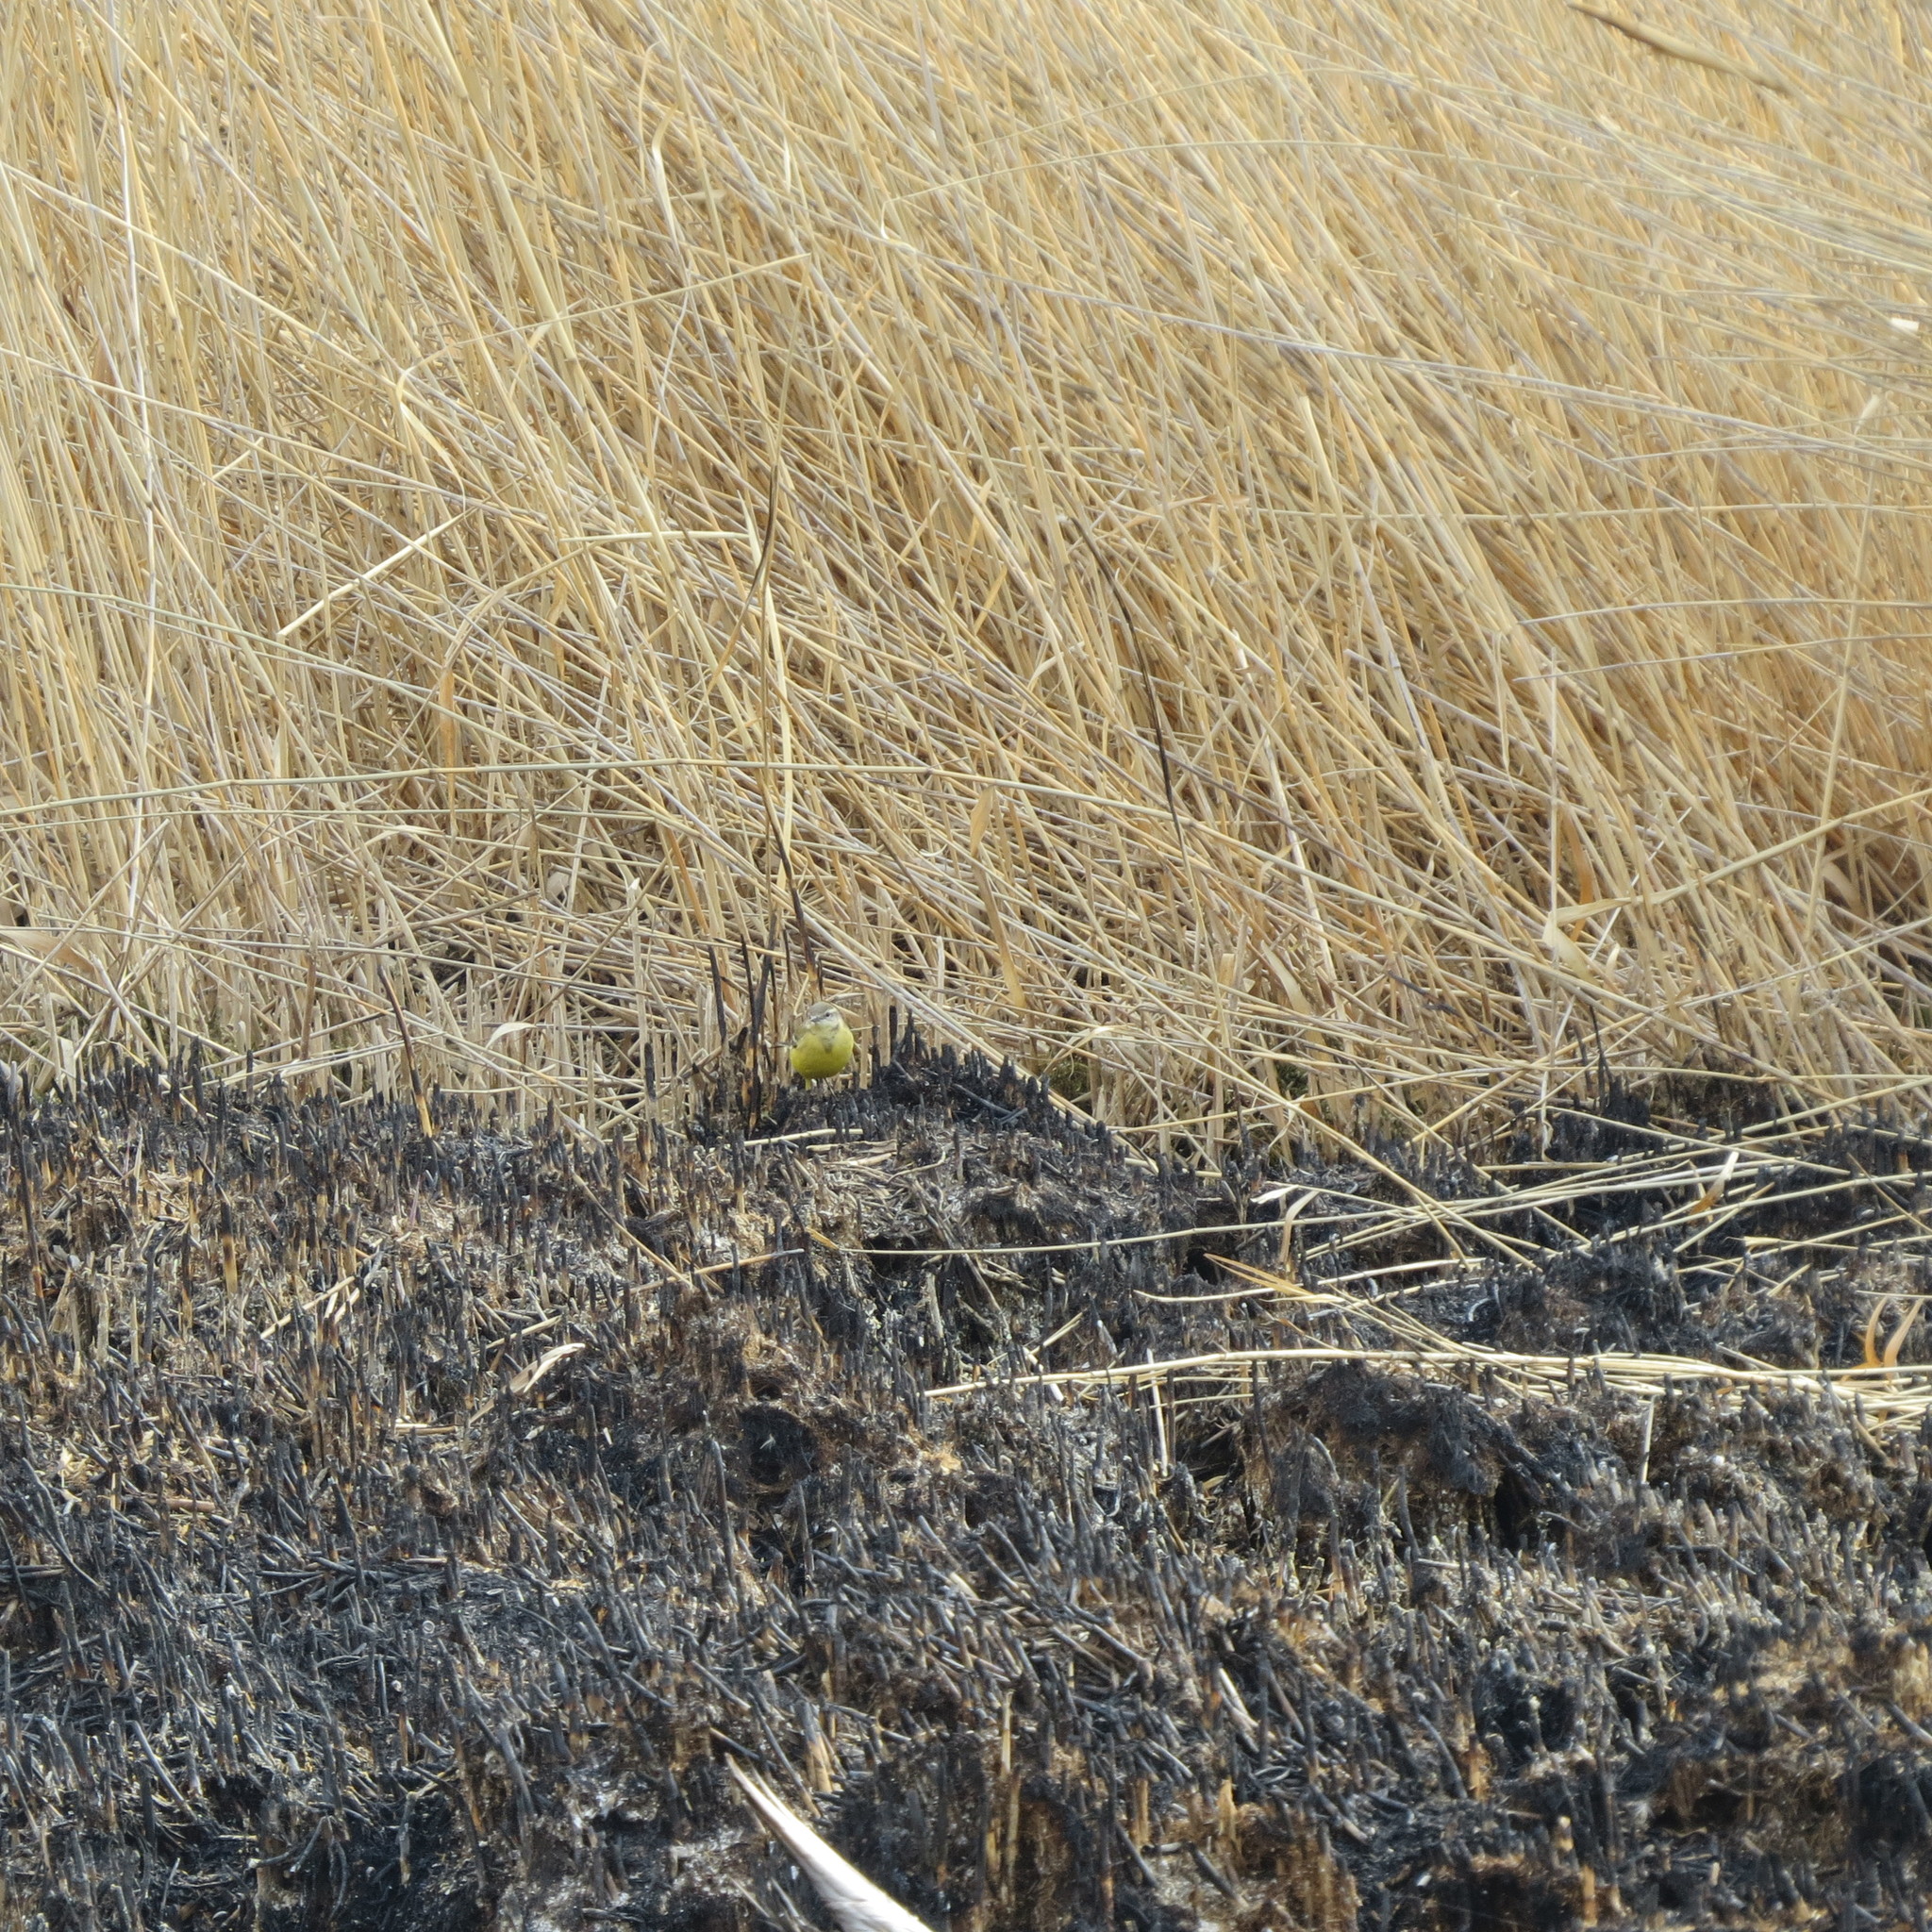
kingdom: Animalia
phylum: Chordata
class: Aves
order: Passeriformes
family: Motacillidae
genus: Motacilla
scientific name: Motacilla flava
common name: Western yellow wagtail
